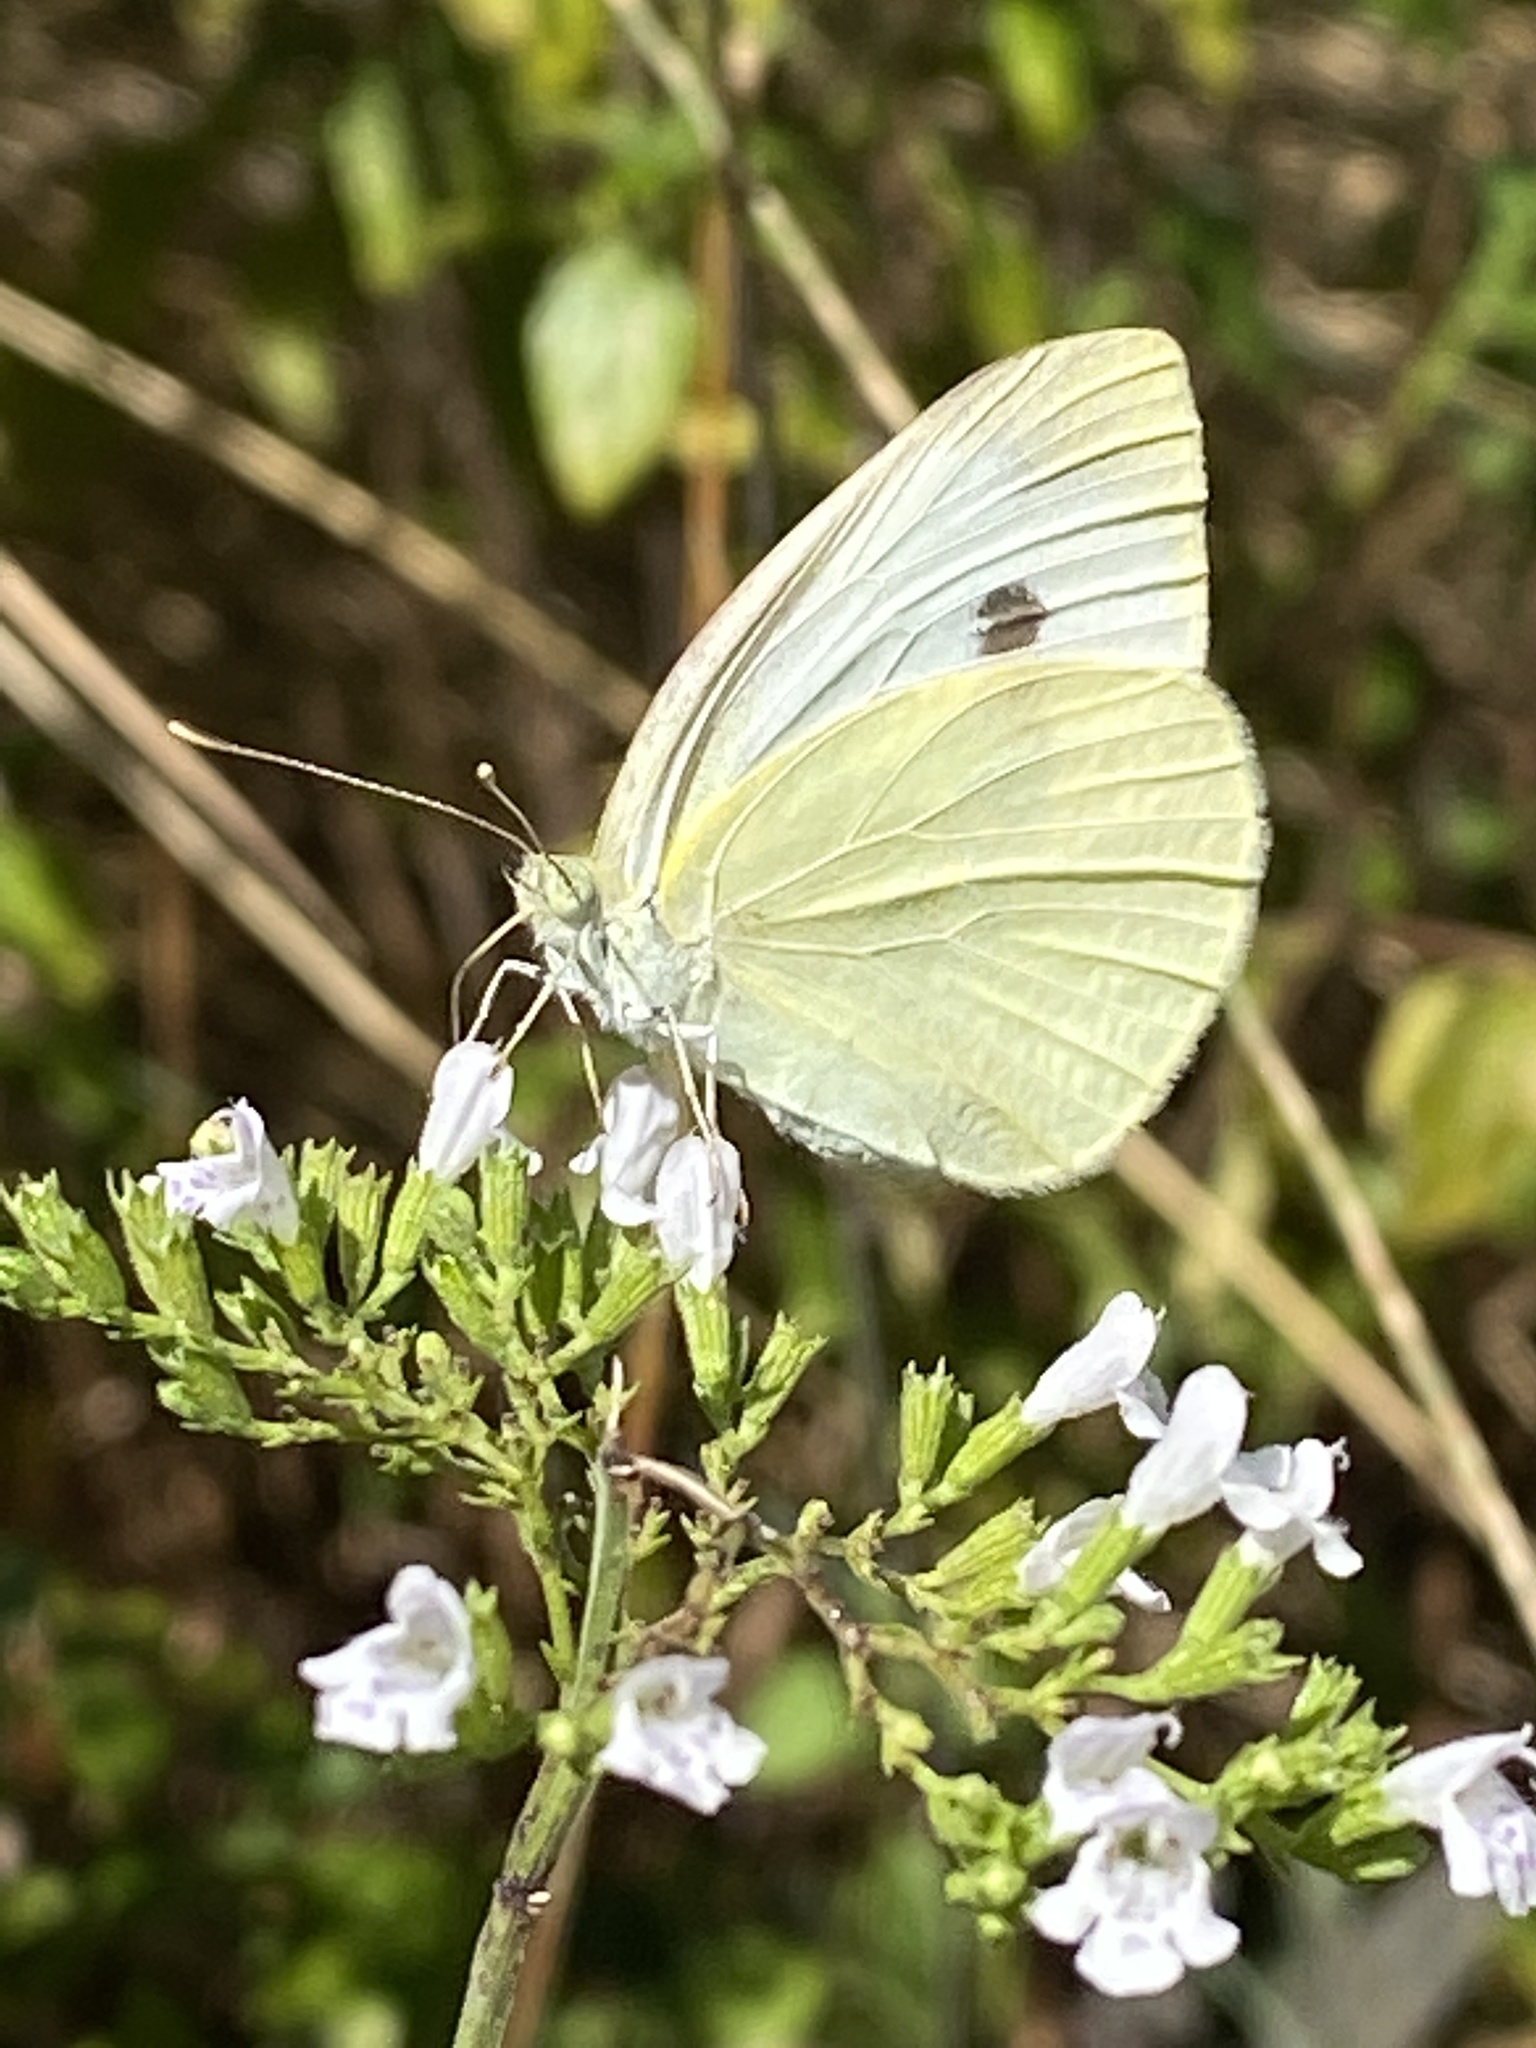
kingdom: Animalia
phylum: Arthropoda
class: Insecta
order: Lepidoptera
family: Pieridae
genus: Pieris
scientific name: Pieris rapae
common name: Small white
